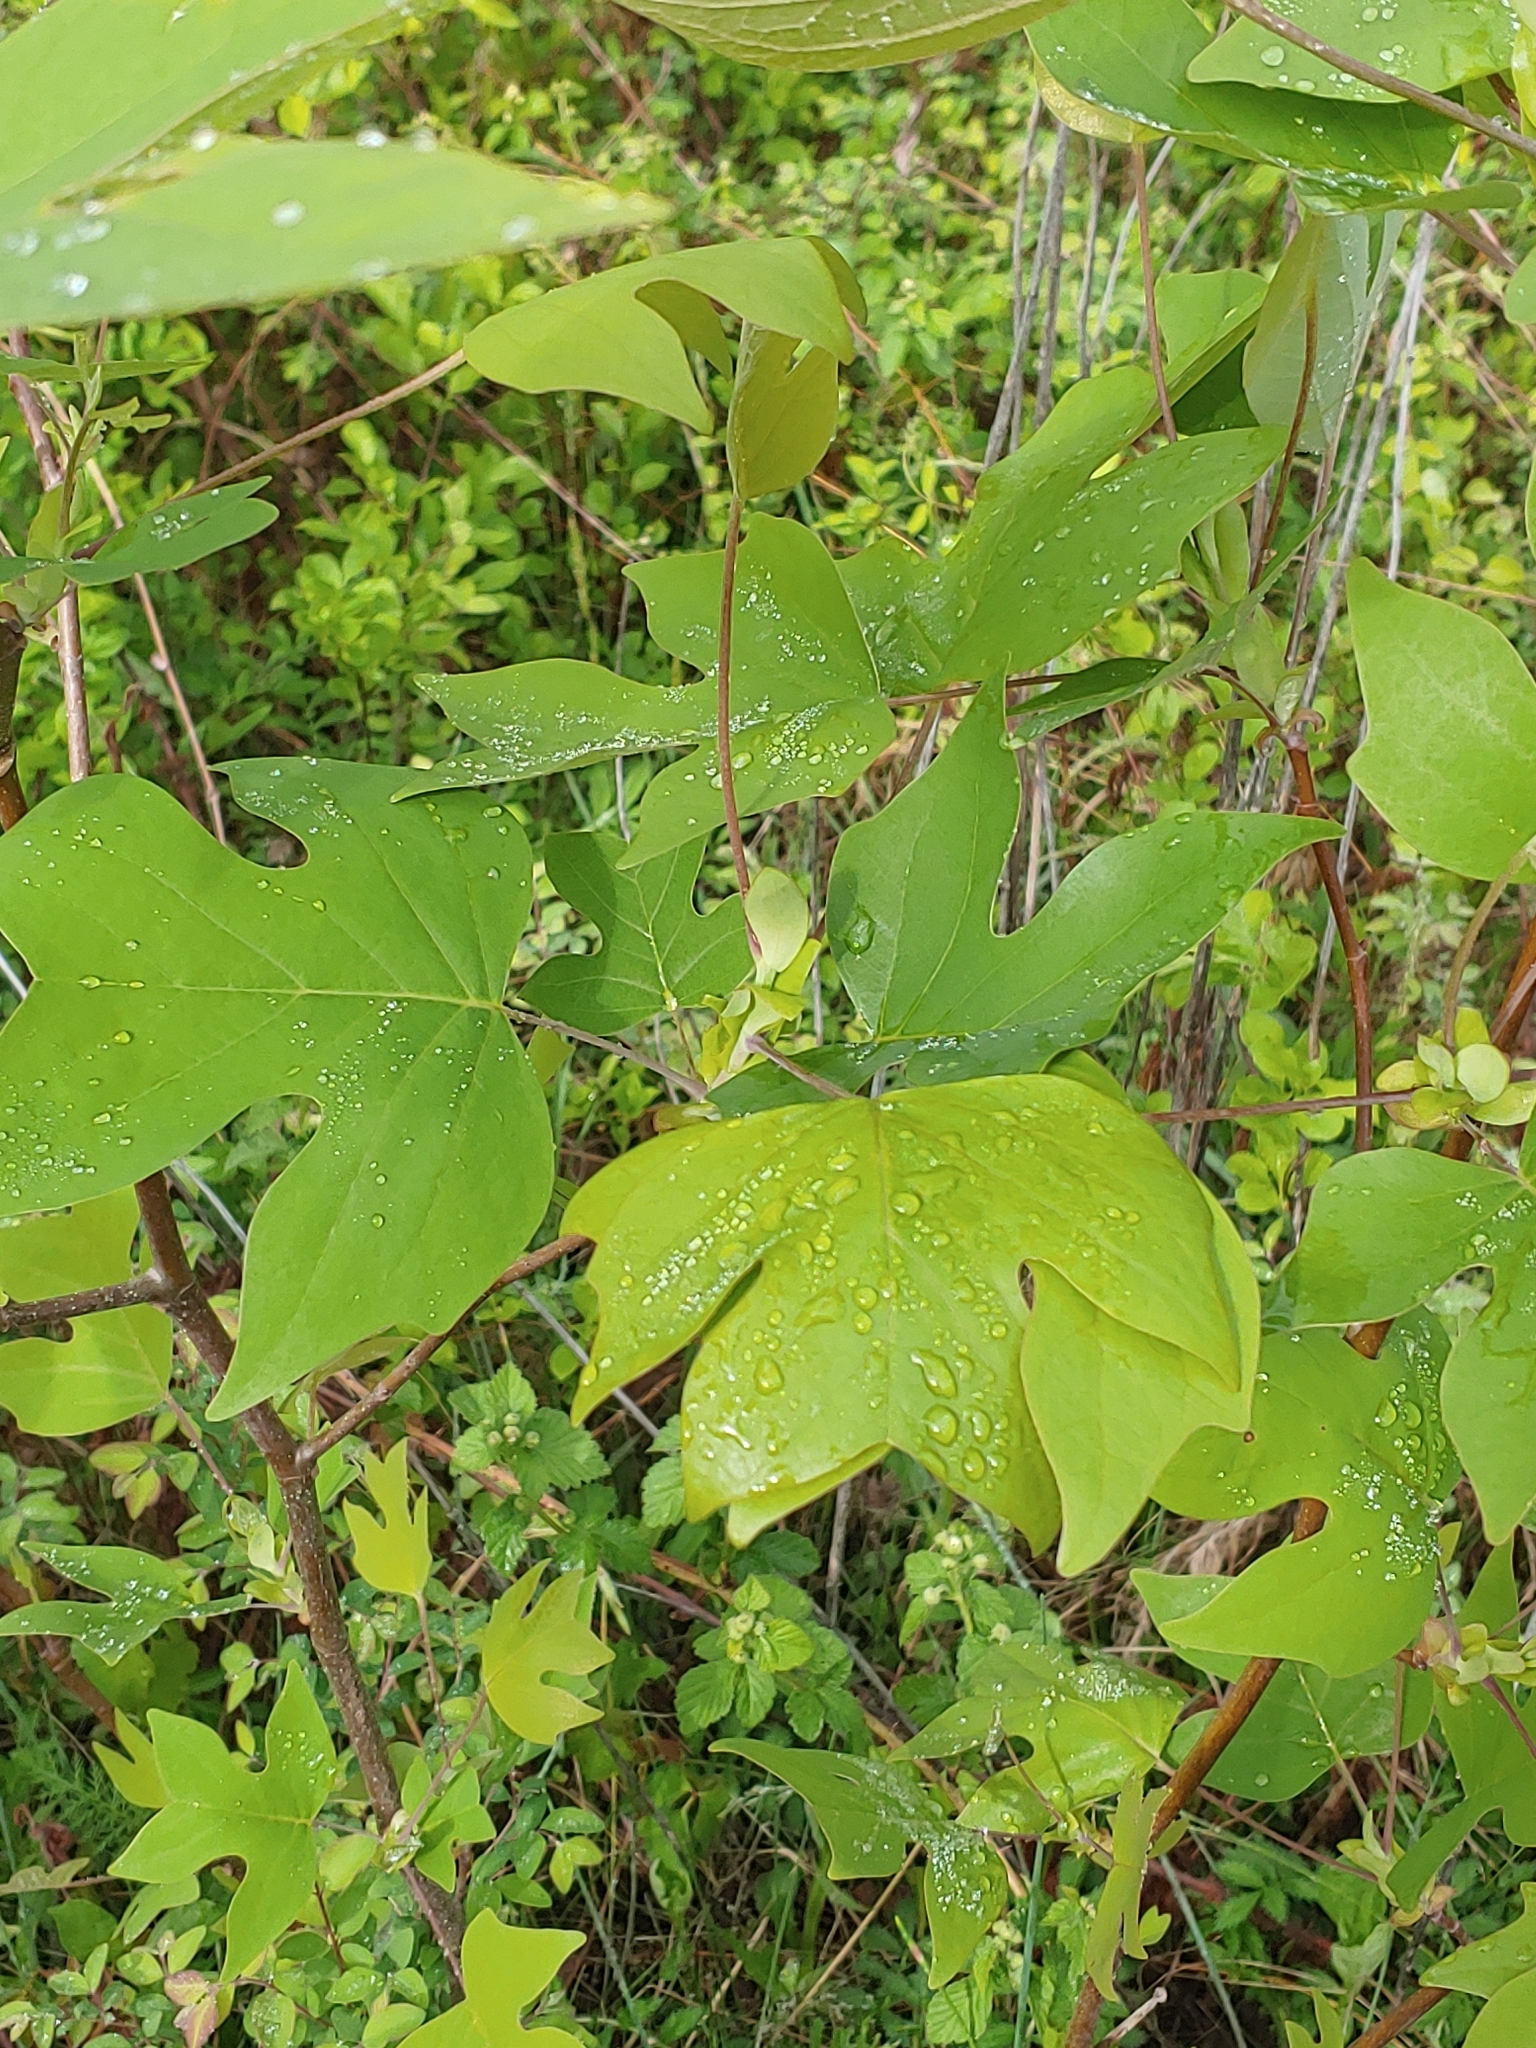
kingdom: Plantae
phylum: Tracheophyta
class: Magnoliopsida
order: Magnoliales
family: Magnoliaceae
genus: Liriodendron
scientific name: Liriodendron tulipifera
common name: Tulip tree
